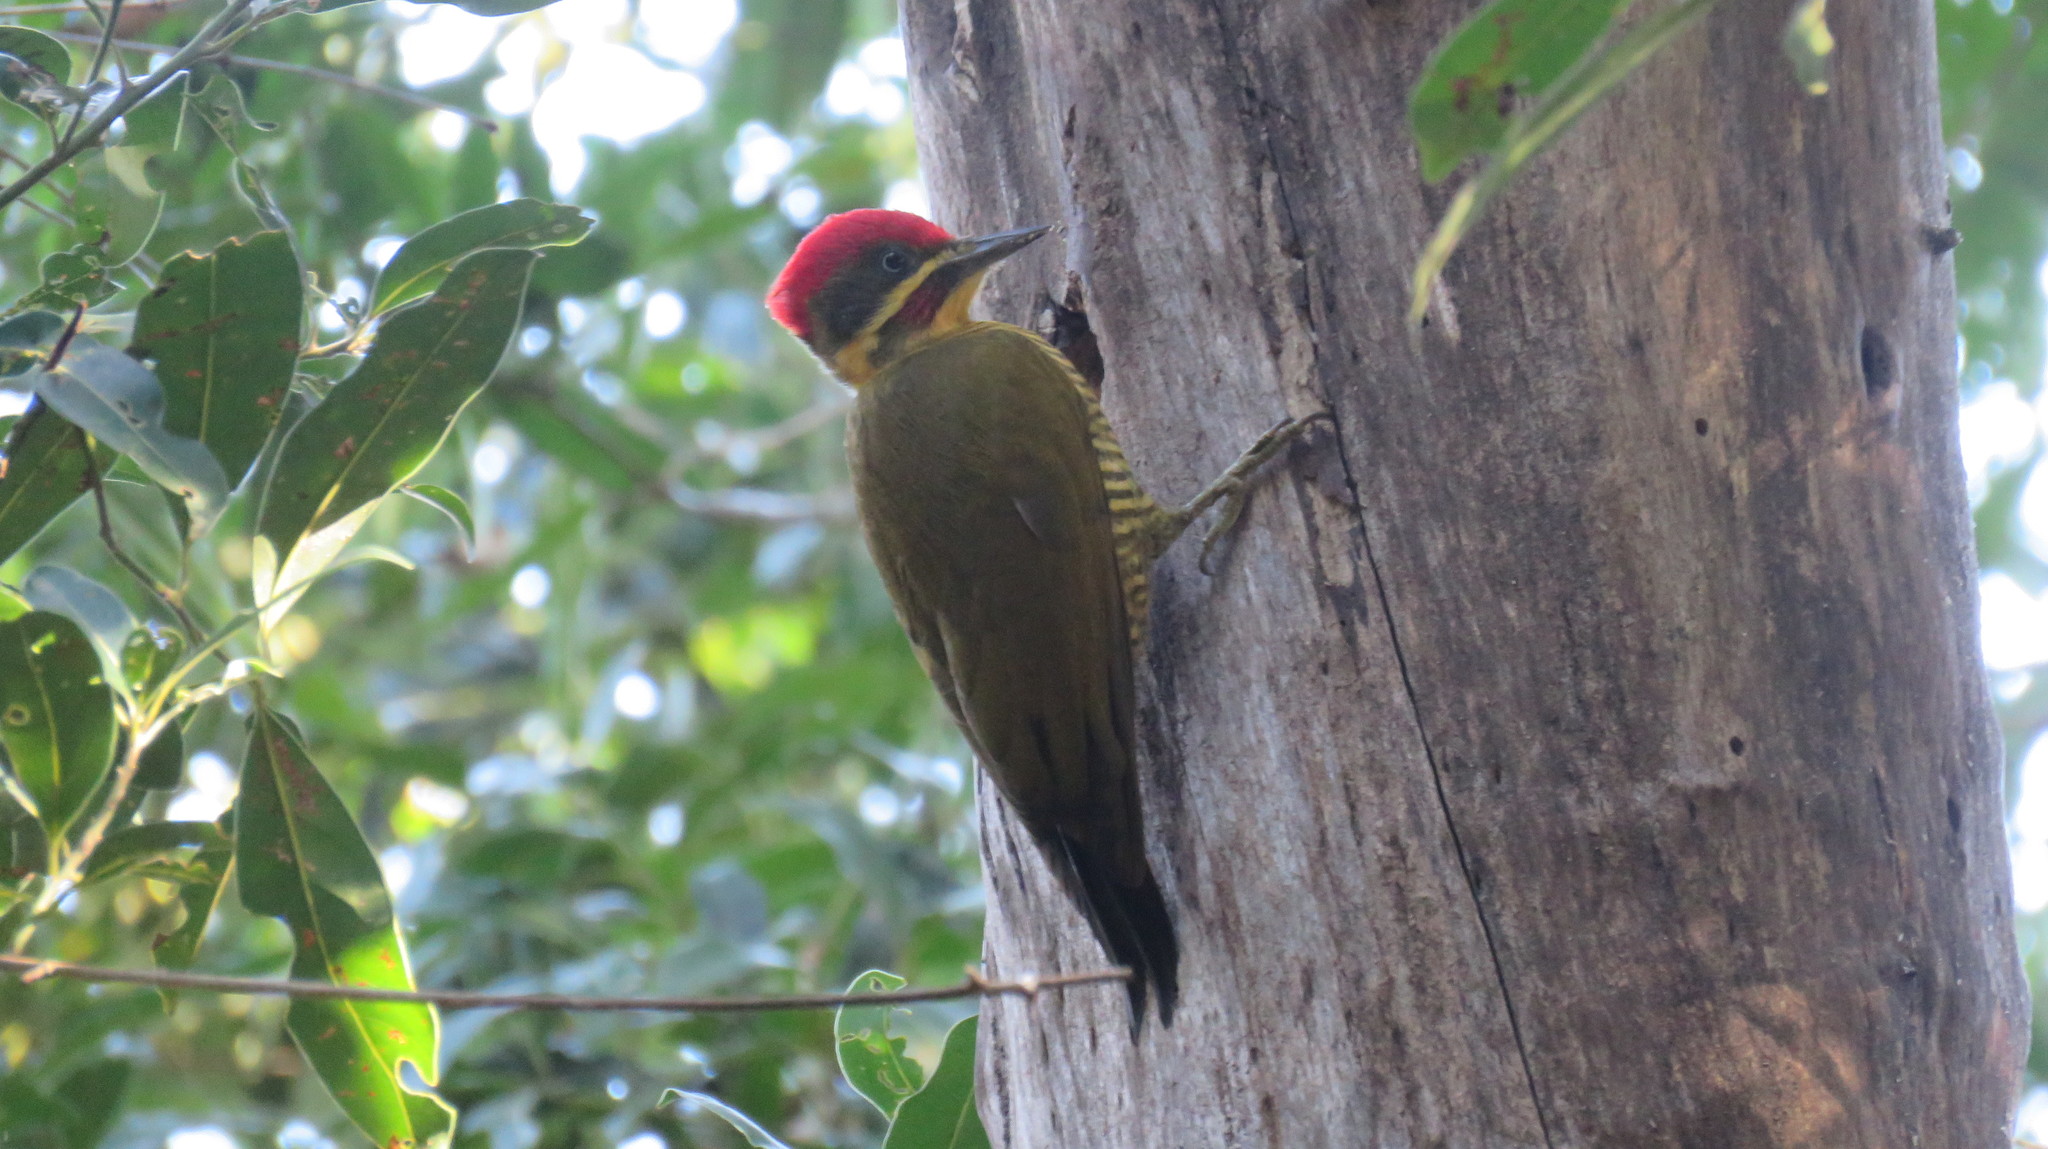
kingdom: Animalia
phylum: Chordata
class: Aves
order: Piciformes
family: Picidae
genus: Piculus
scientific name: Piculus chrysochloros
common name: Golden-green woodpecker
